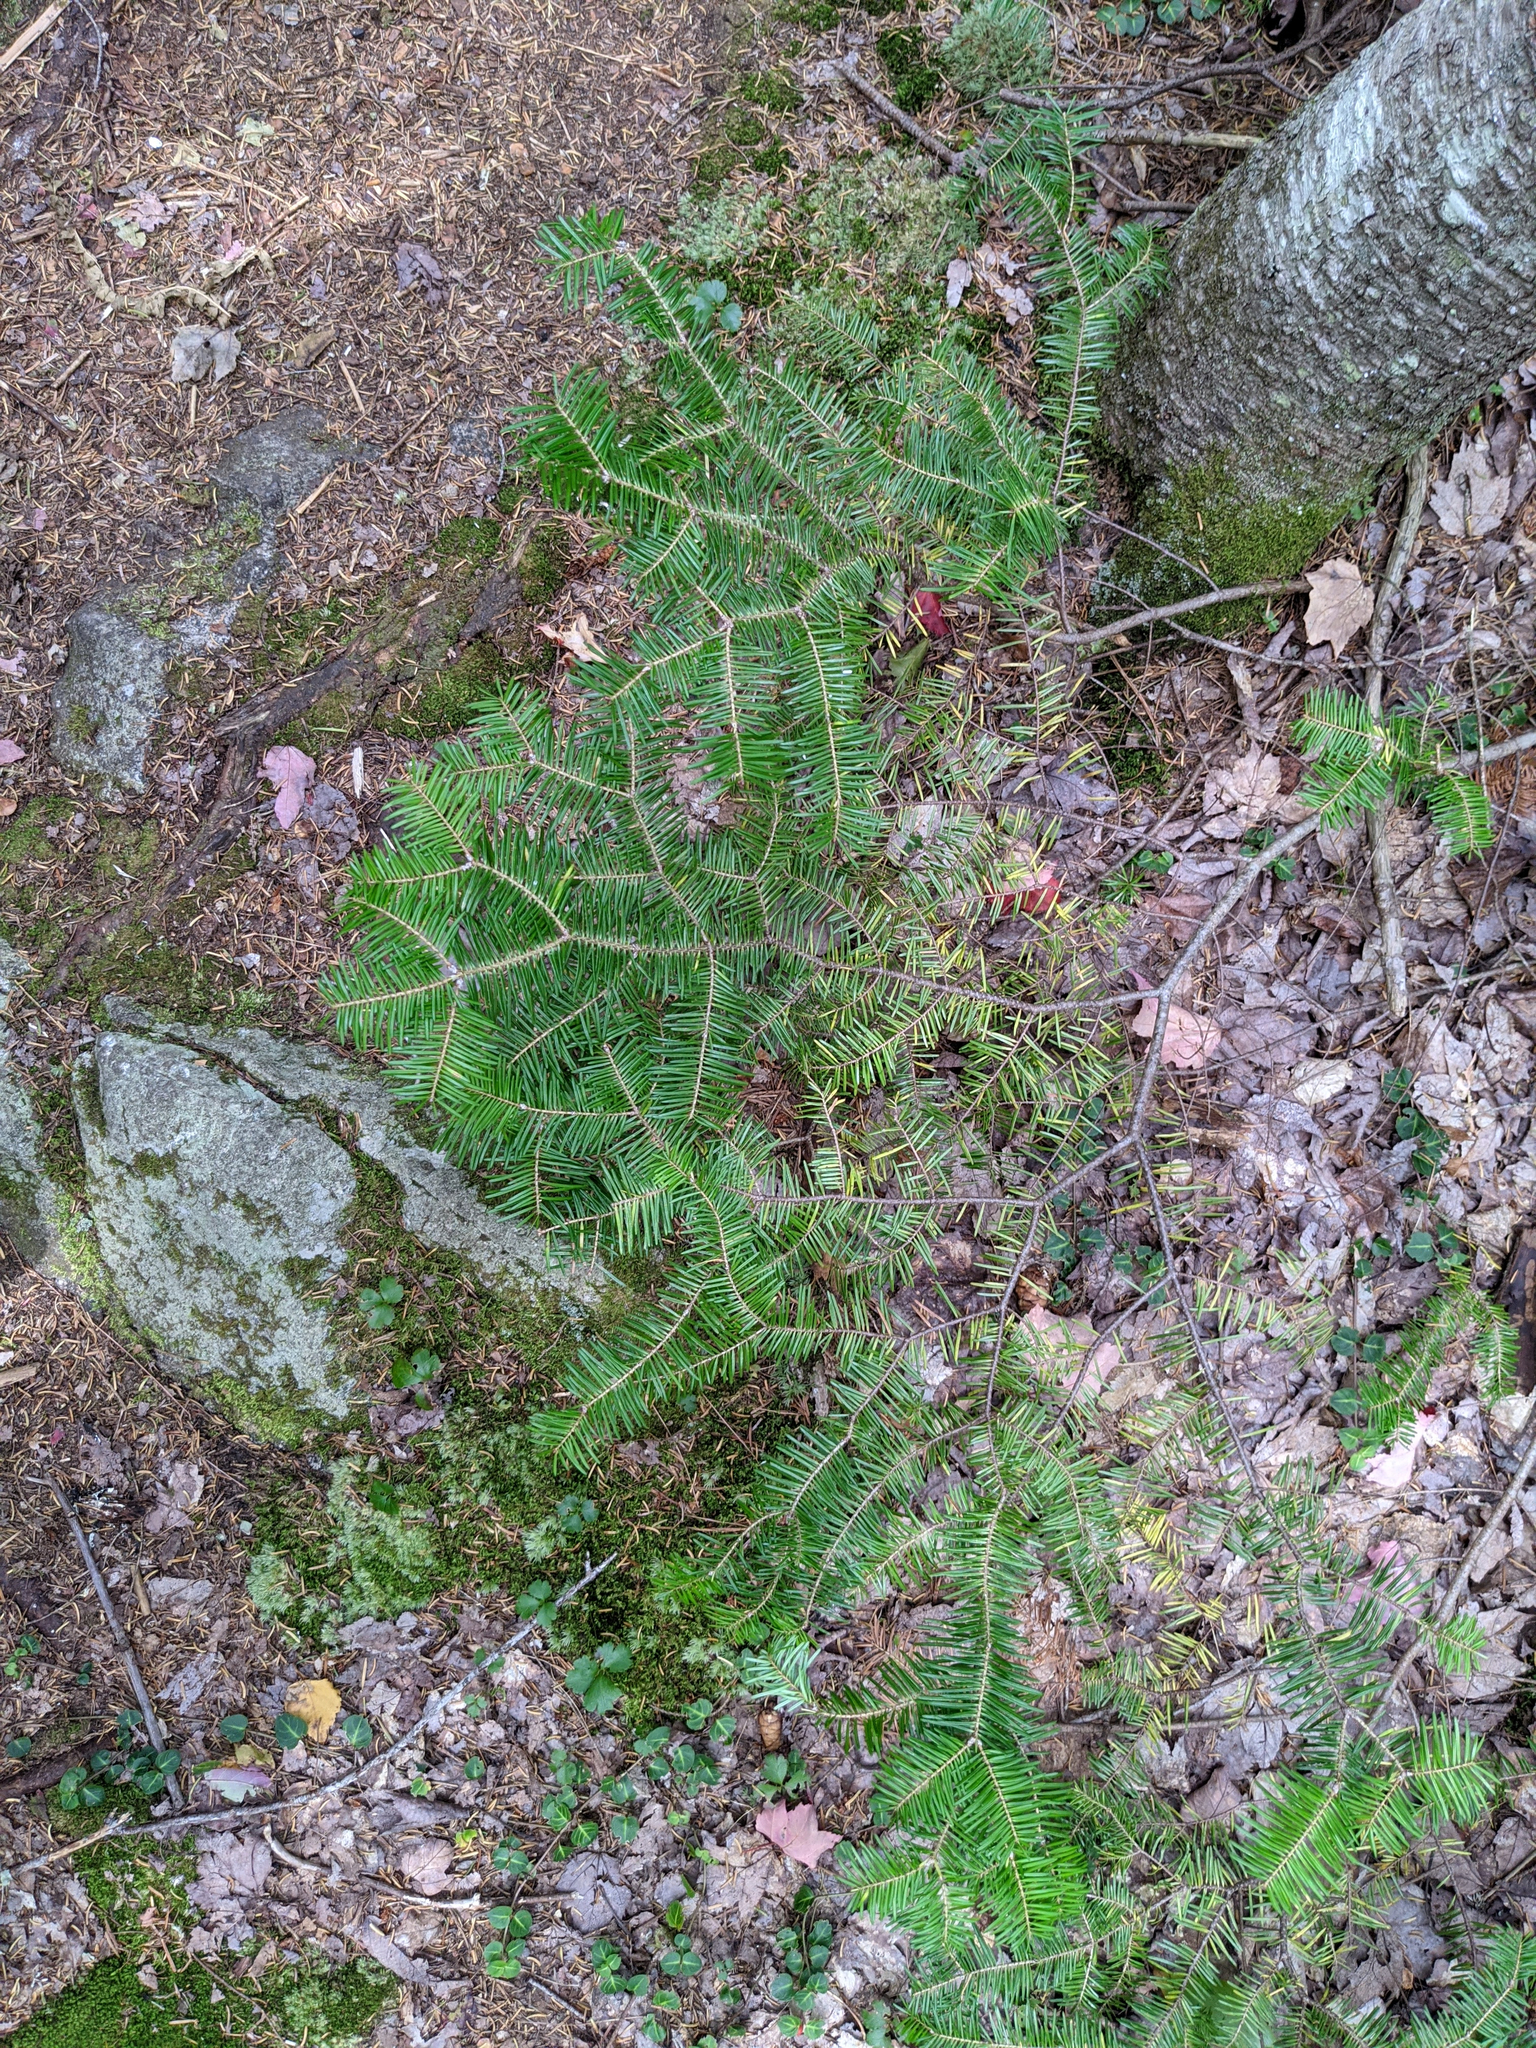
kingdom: Plantae
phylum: Tracheophyta
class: Pinopsida
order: Pinales
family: Pinaceae
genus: Abies
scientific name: Abies balsamea
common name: Balsam fir
